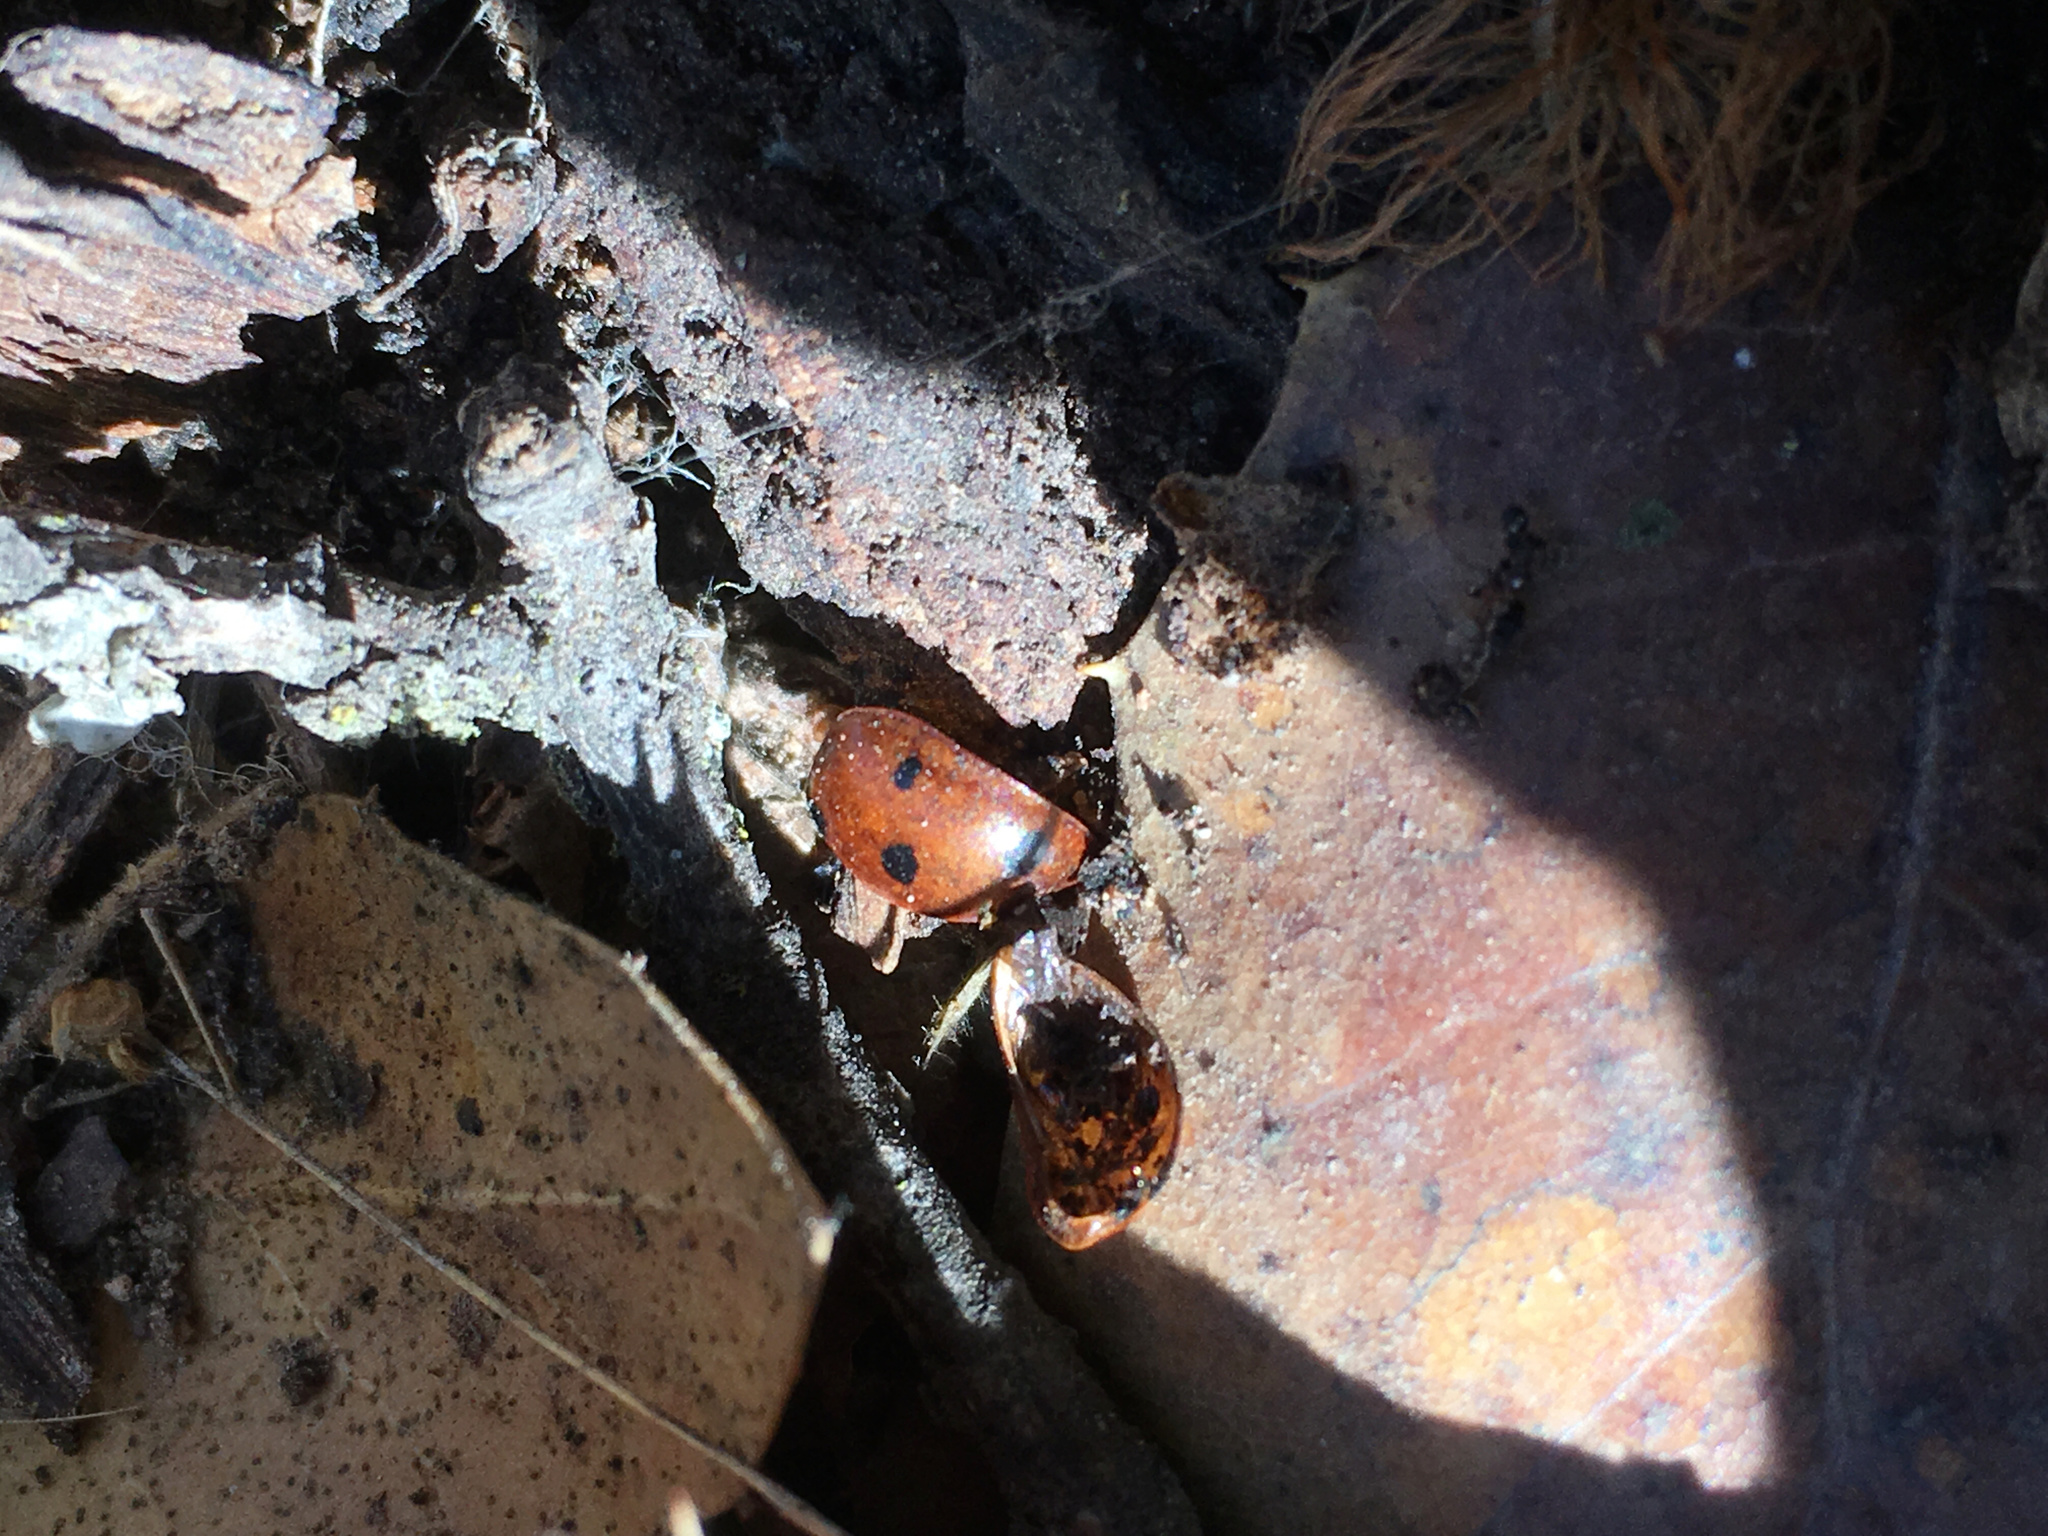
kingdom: Animalia
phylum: Arthropoda
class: Insecta
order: Coleoptera
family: Coccinellidae
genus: Coccinella
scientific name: Coccinella septempunctata
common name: Sevenspotted lady beetle
